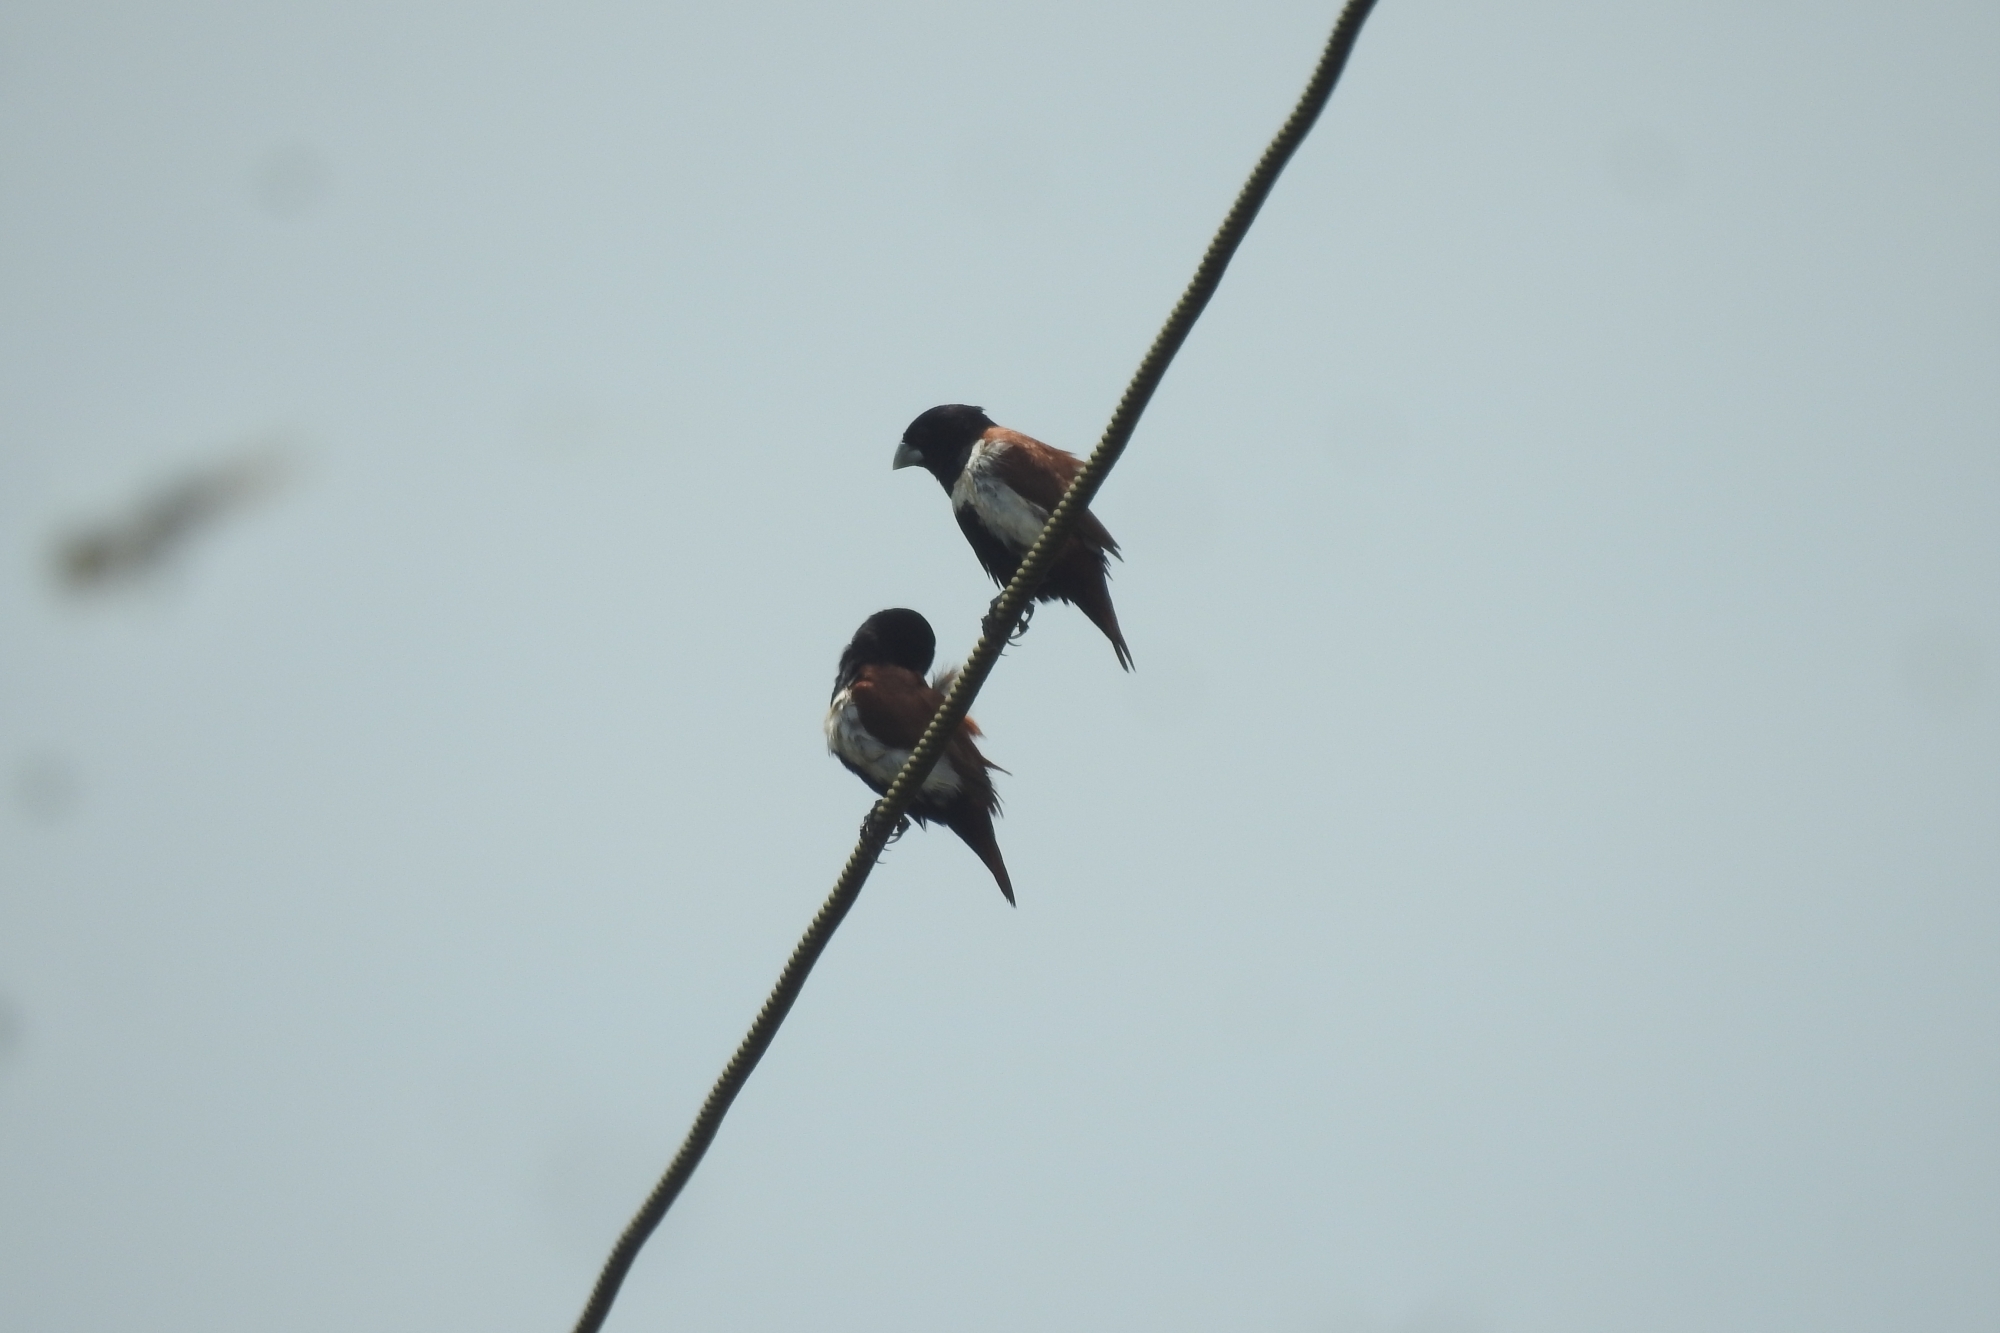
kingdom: Animalia
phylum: Chordata
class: Aves
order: Passeriformes
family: Estrildidae
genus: Lonchura
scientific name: Lonchura malacca
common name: Tricolored munia
